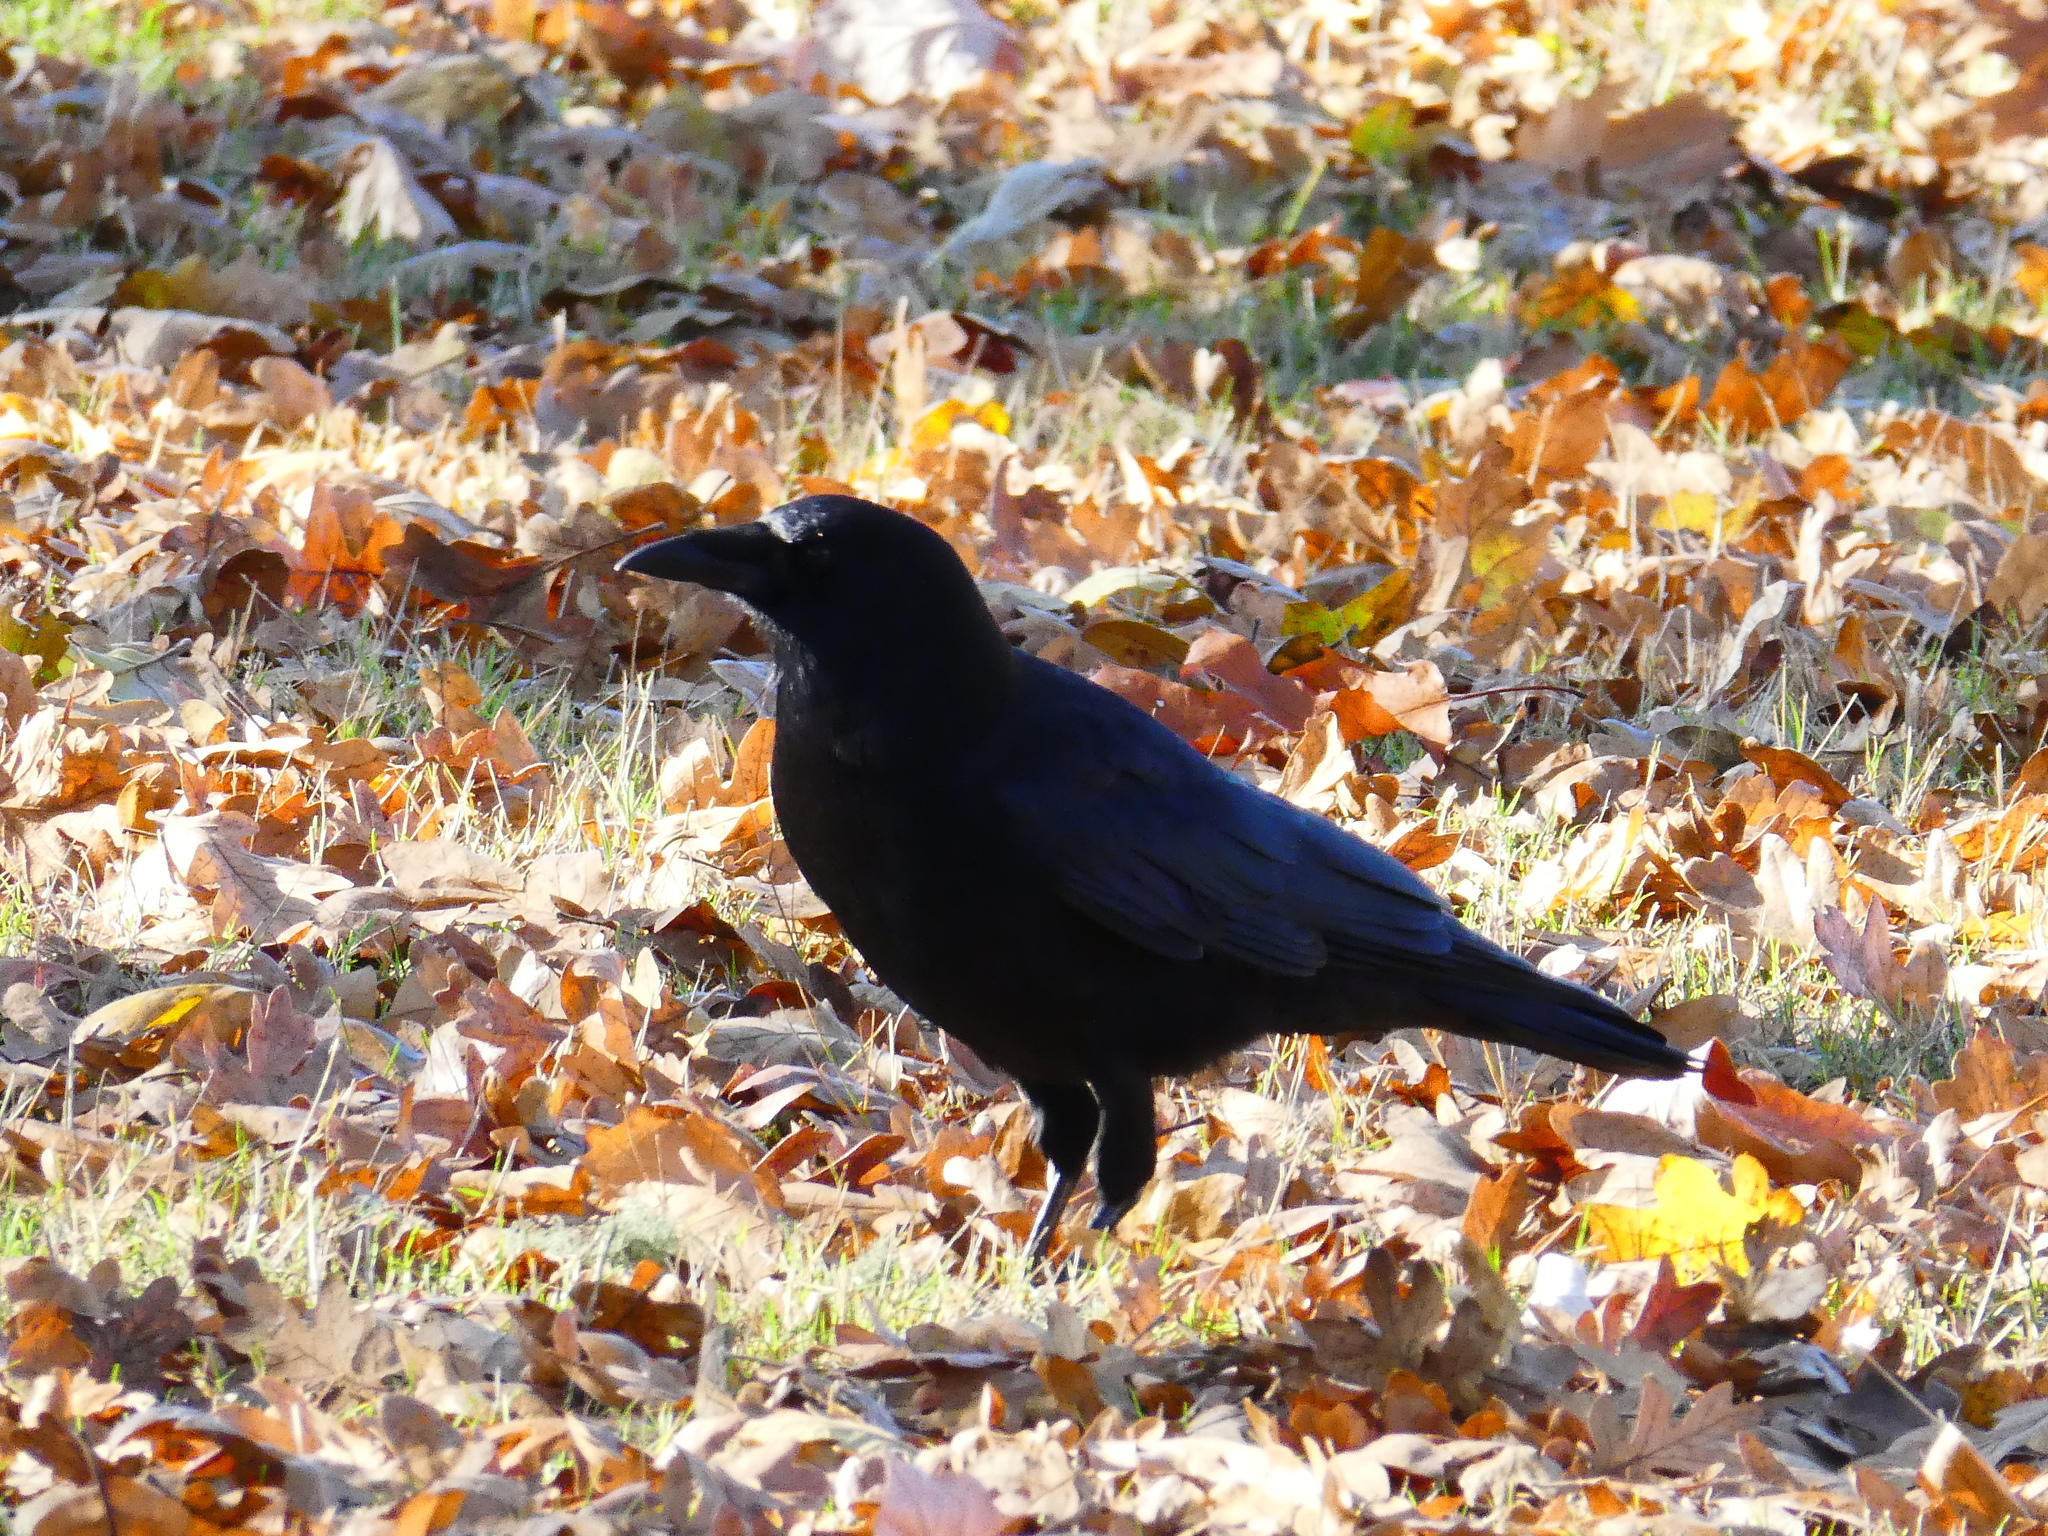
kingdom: Animalia
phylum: Chordata
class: Aves
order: Passeriformes
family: Corvidae
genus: Corvus
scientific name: Corvus brachyrhynchos
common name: American crow
